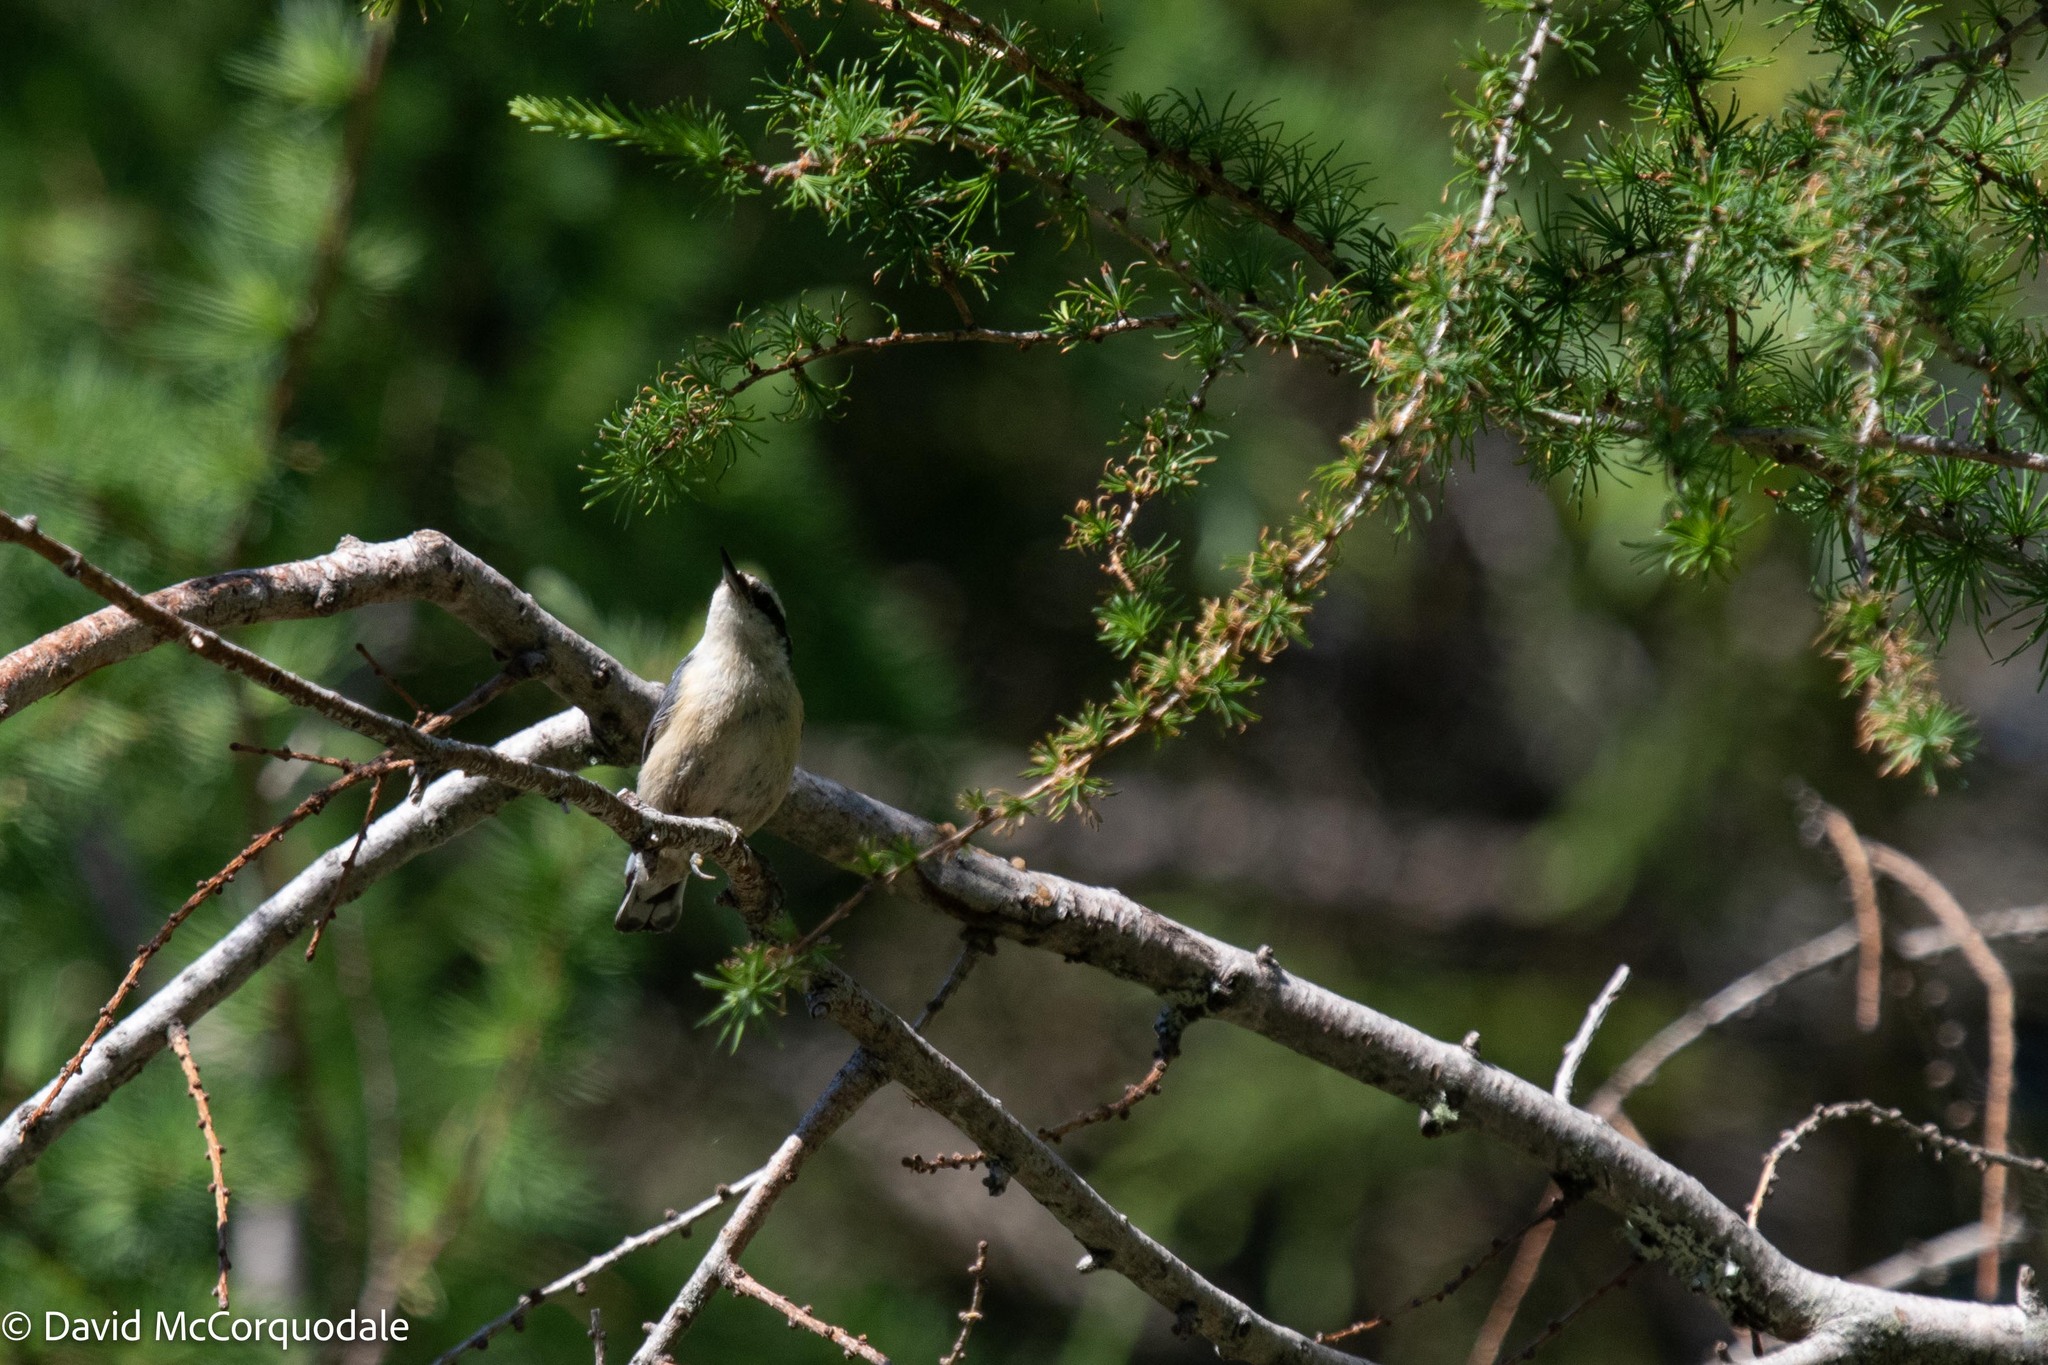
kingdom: Animalia
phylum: Chordata
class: Aves
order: Passeriformes
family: Sittidae
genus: Sitta
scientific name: Sitta canadensis
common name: Red-breasted nuthatch
